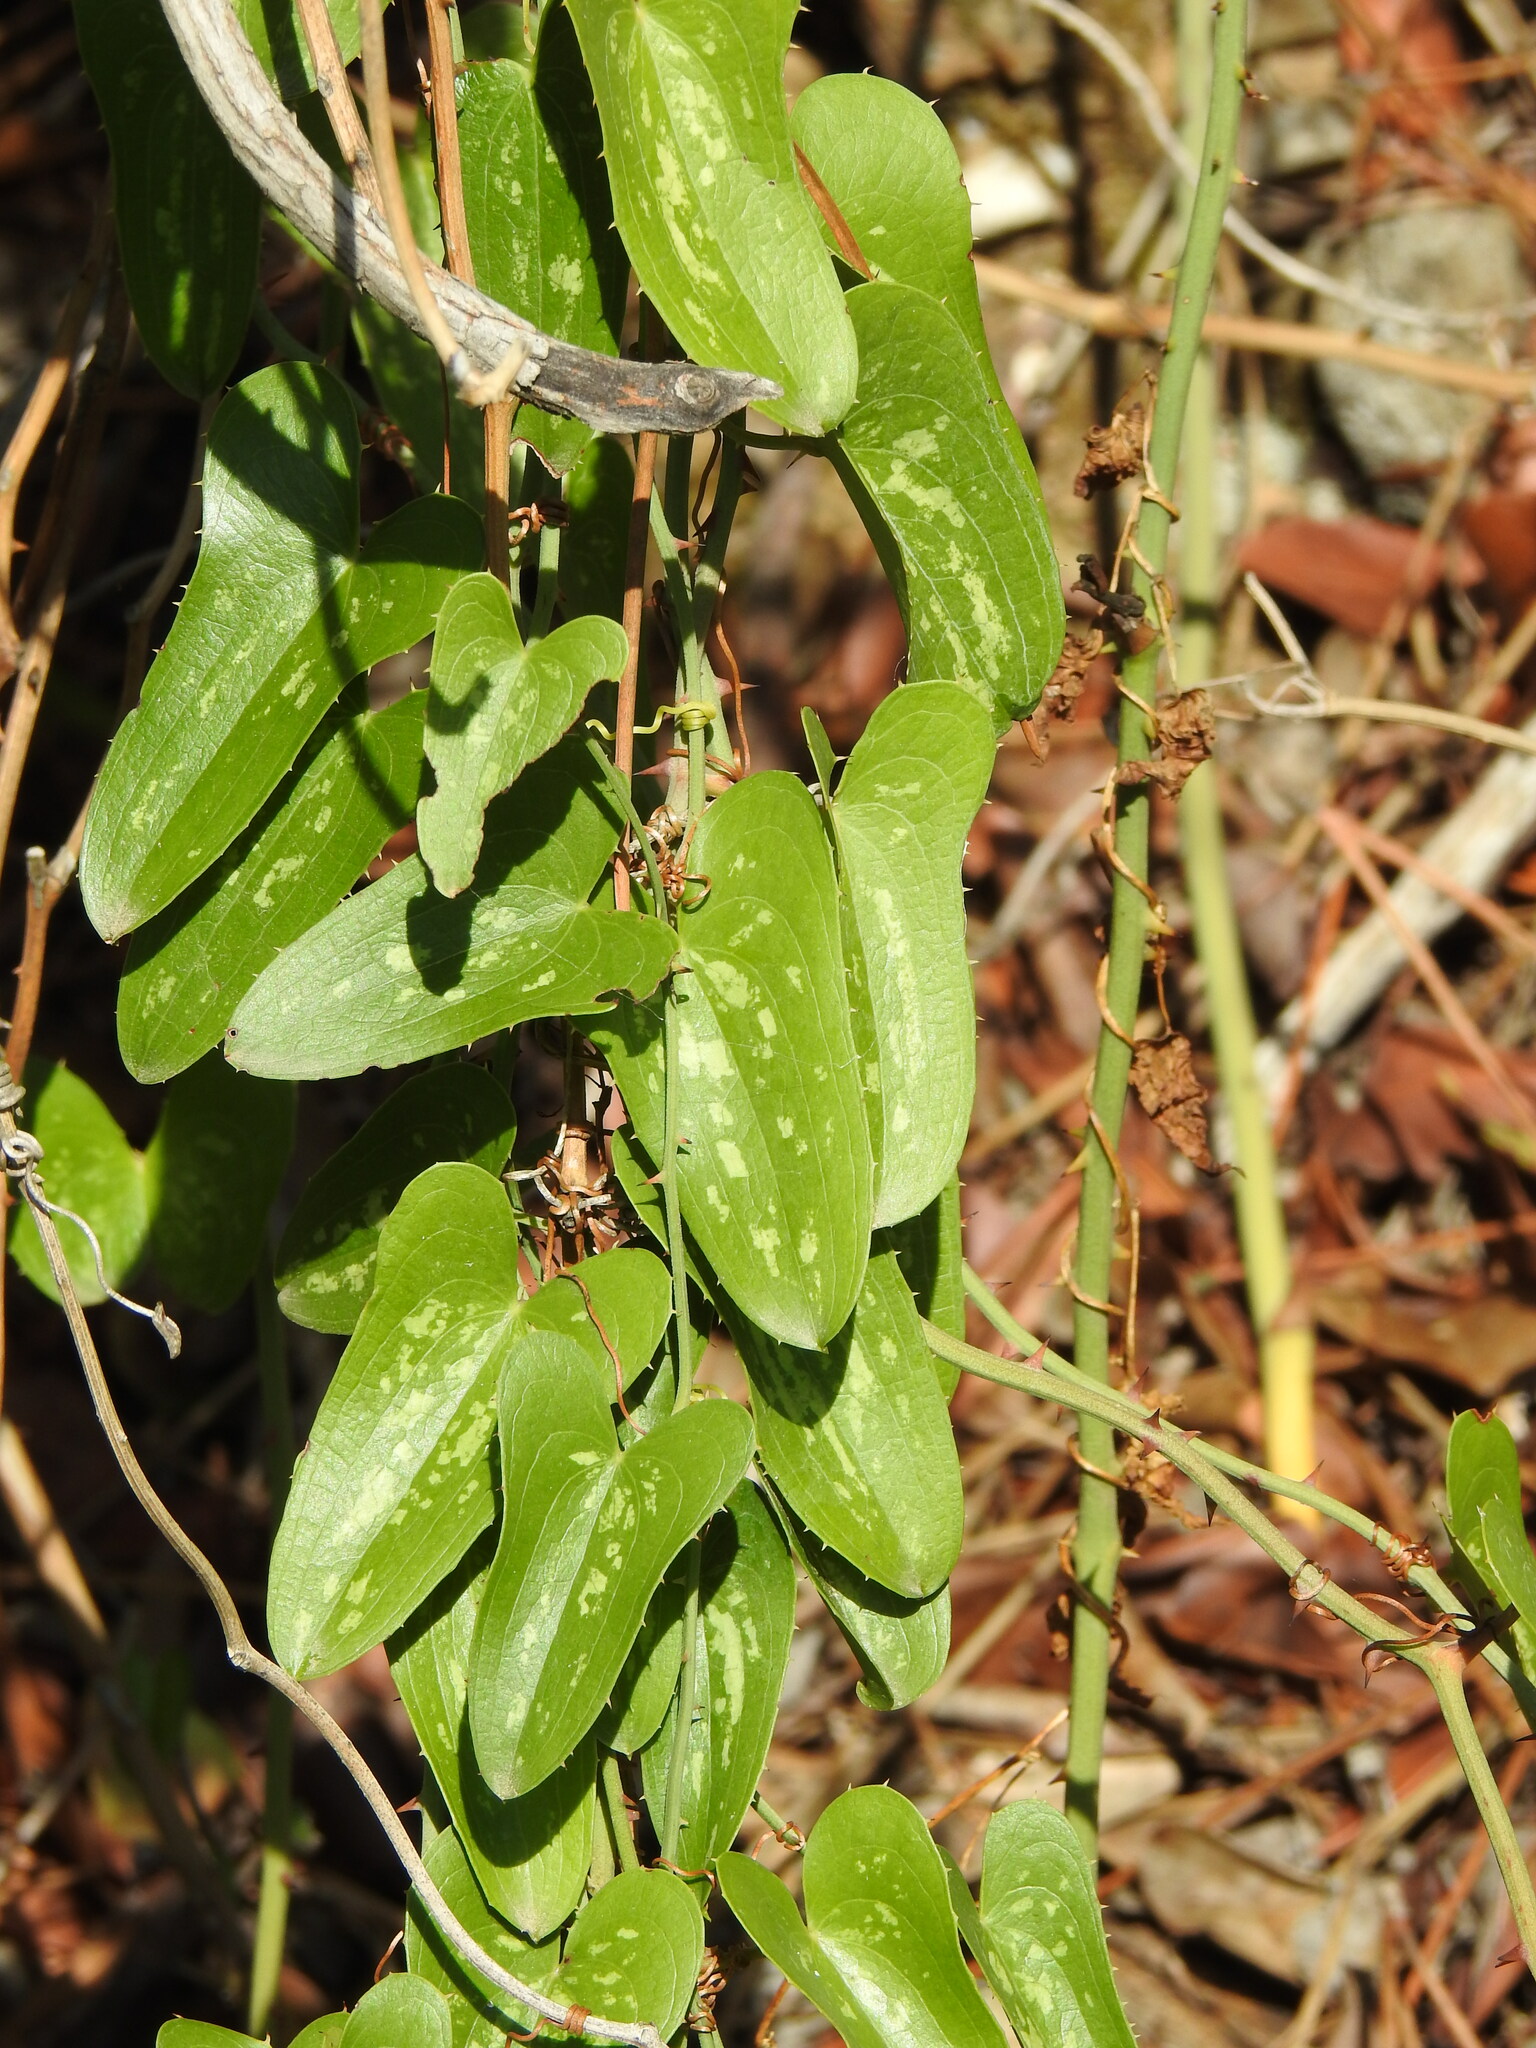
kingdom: Plantae
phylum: Tracheophyta
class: Liliopsida
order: Liliales
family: Smilacaceae
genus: Smilax
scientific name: Smilax aspera
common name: Common smilax
